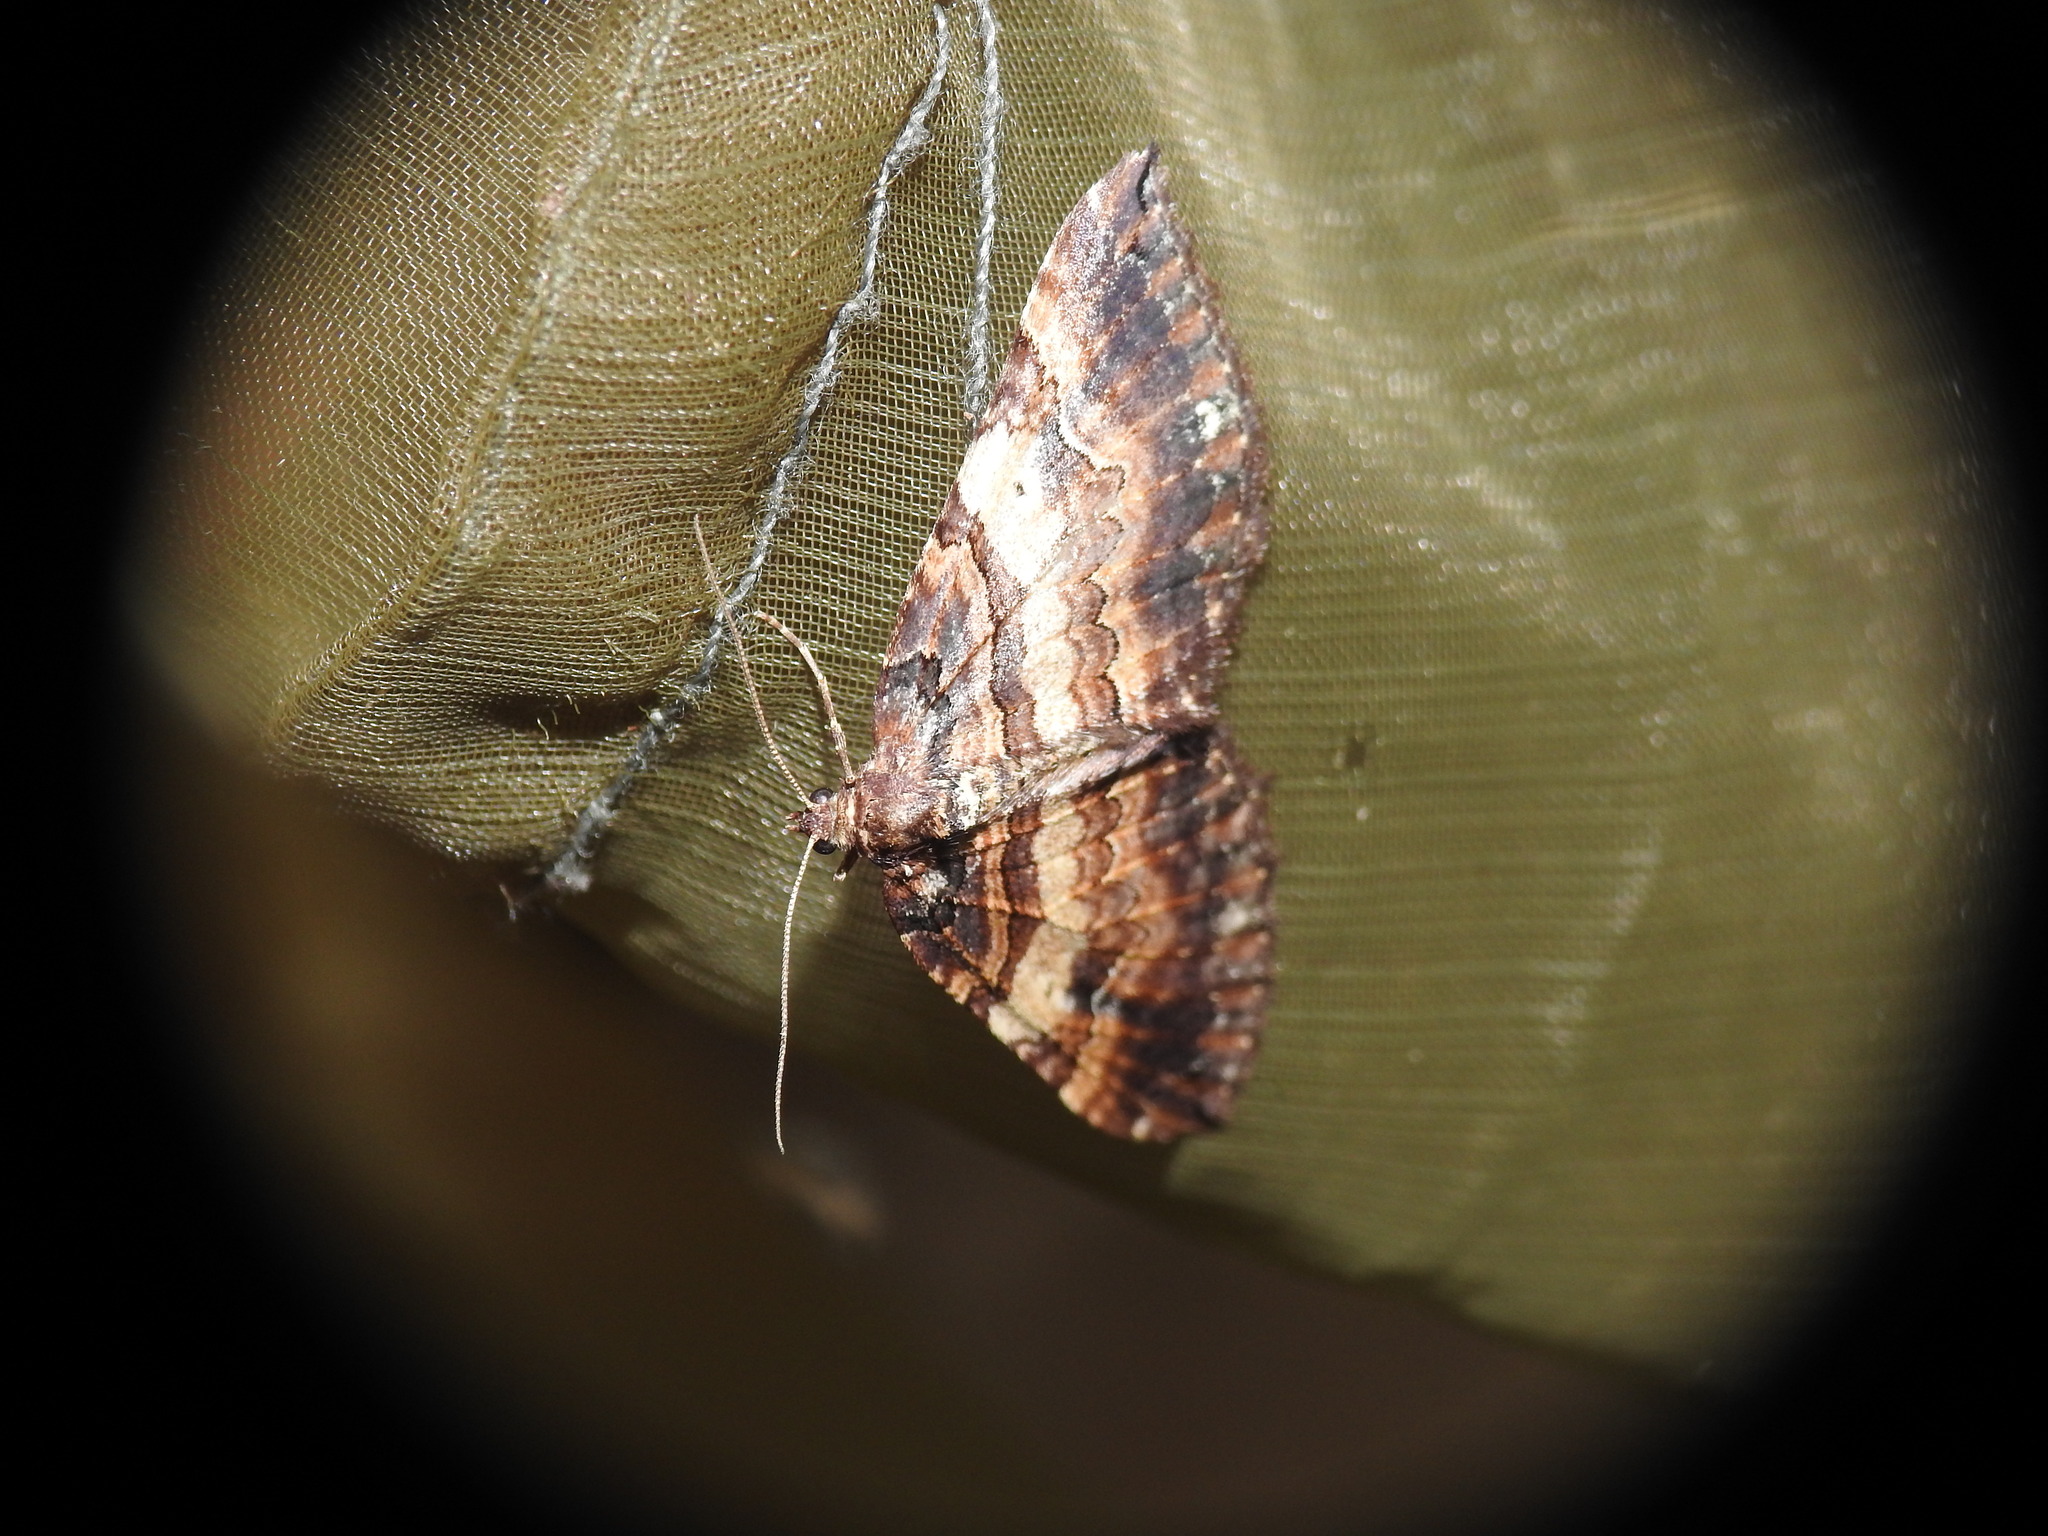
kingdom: Animalia
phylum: Arthropoda
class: Insecta
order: Lepidoptera
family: Geometridae
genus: Anticlea
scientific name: Anticlea badiata
